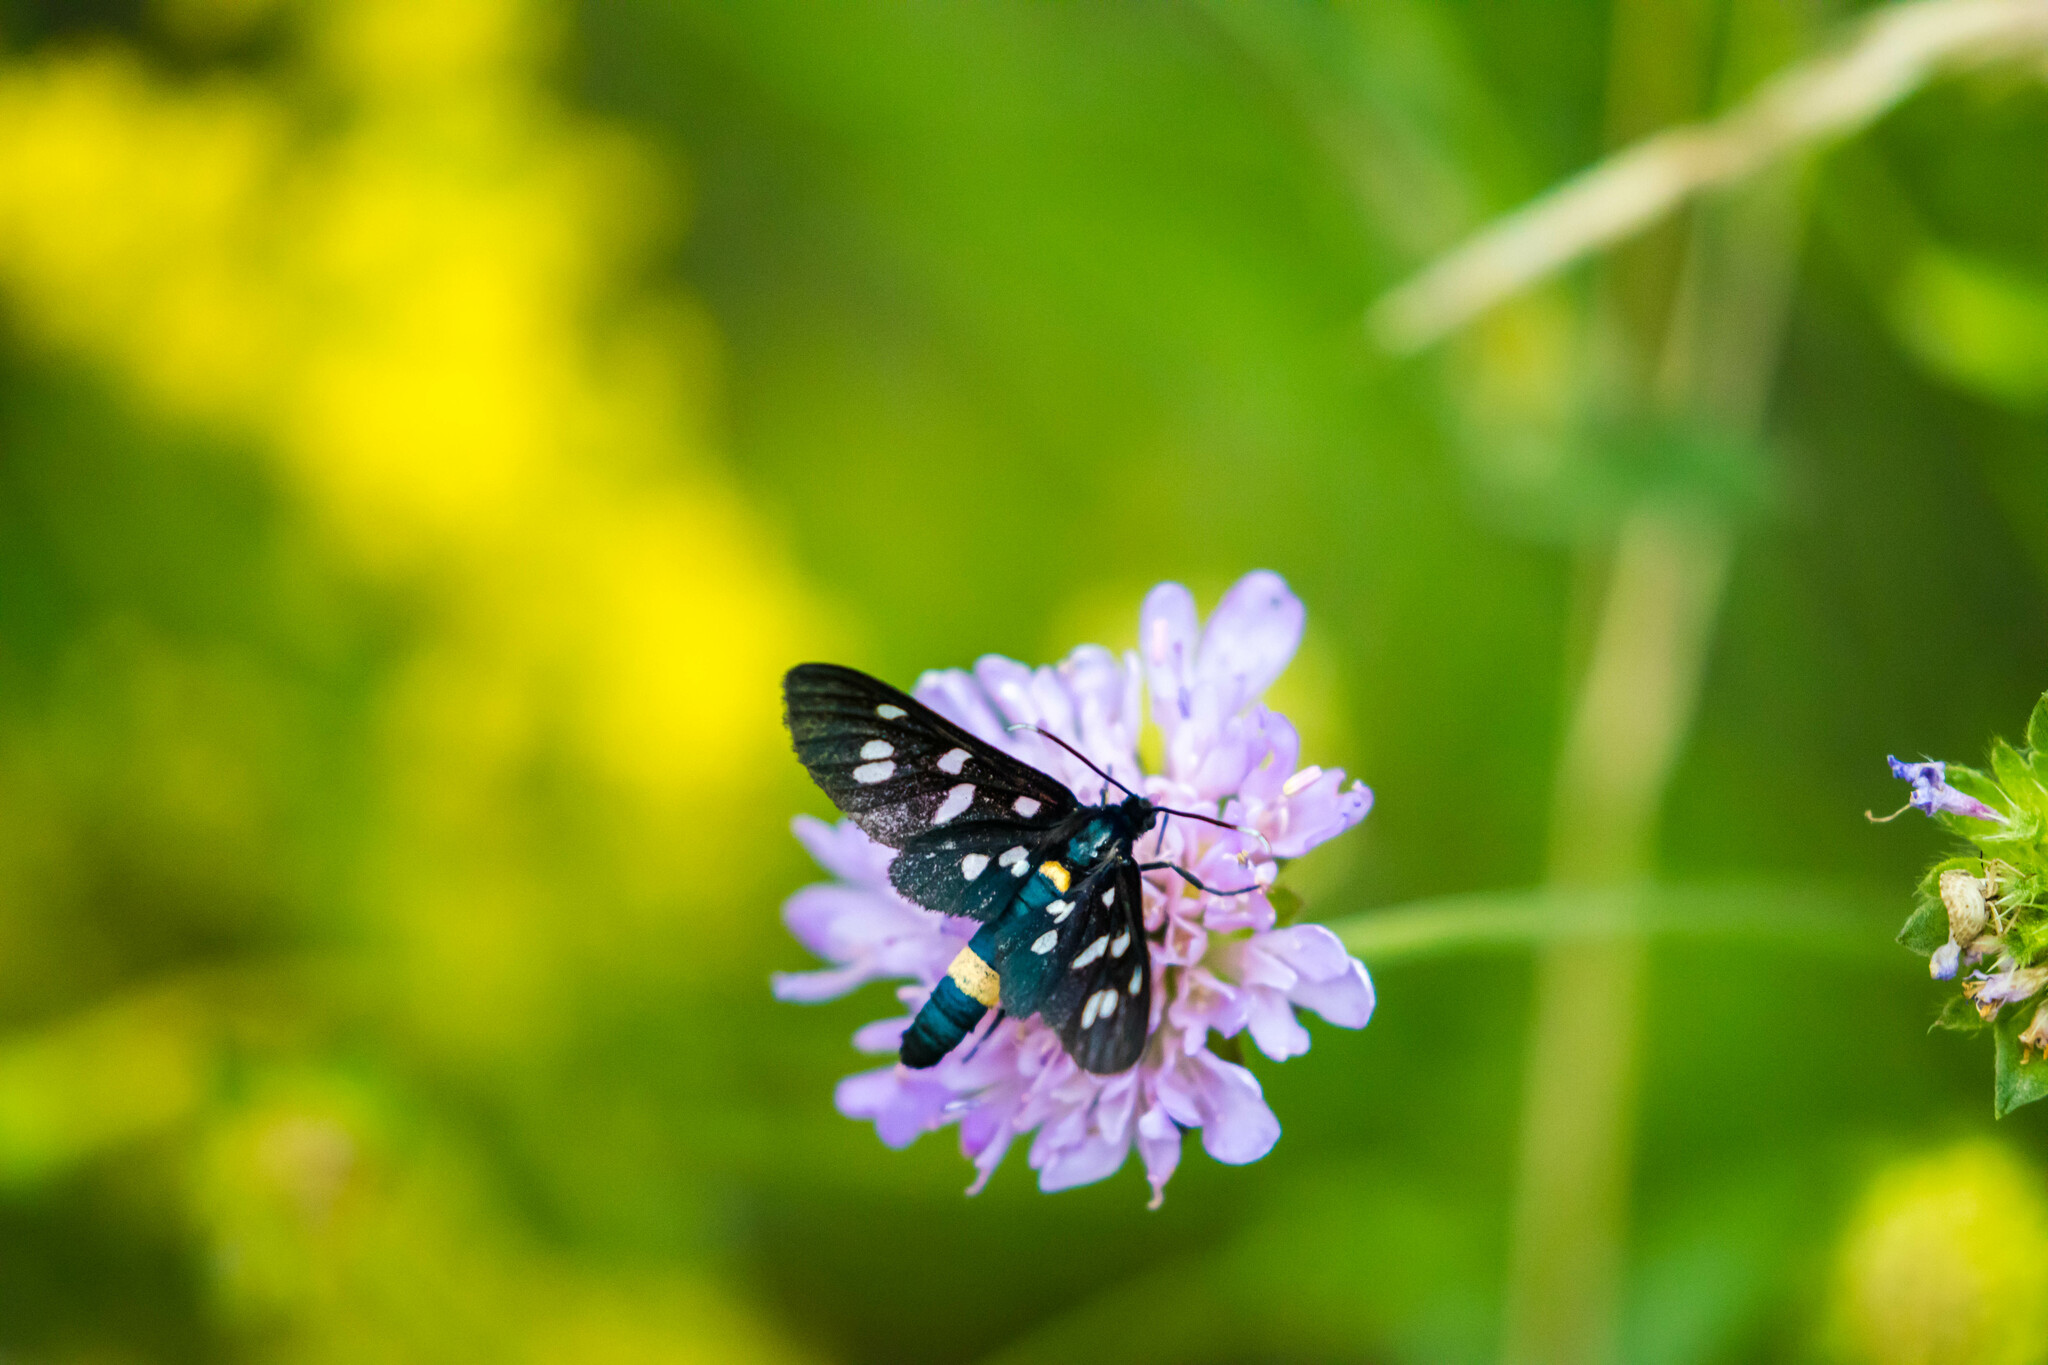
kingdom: Animalia
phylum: Arthropoda
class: Insecta
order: Lepidoptera
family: Erebidae
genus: Amata
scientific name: Amata phegea
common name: Nine-spotted
